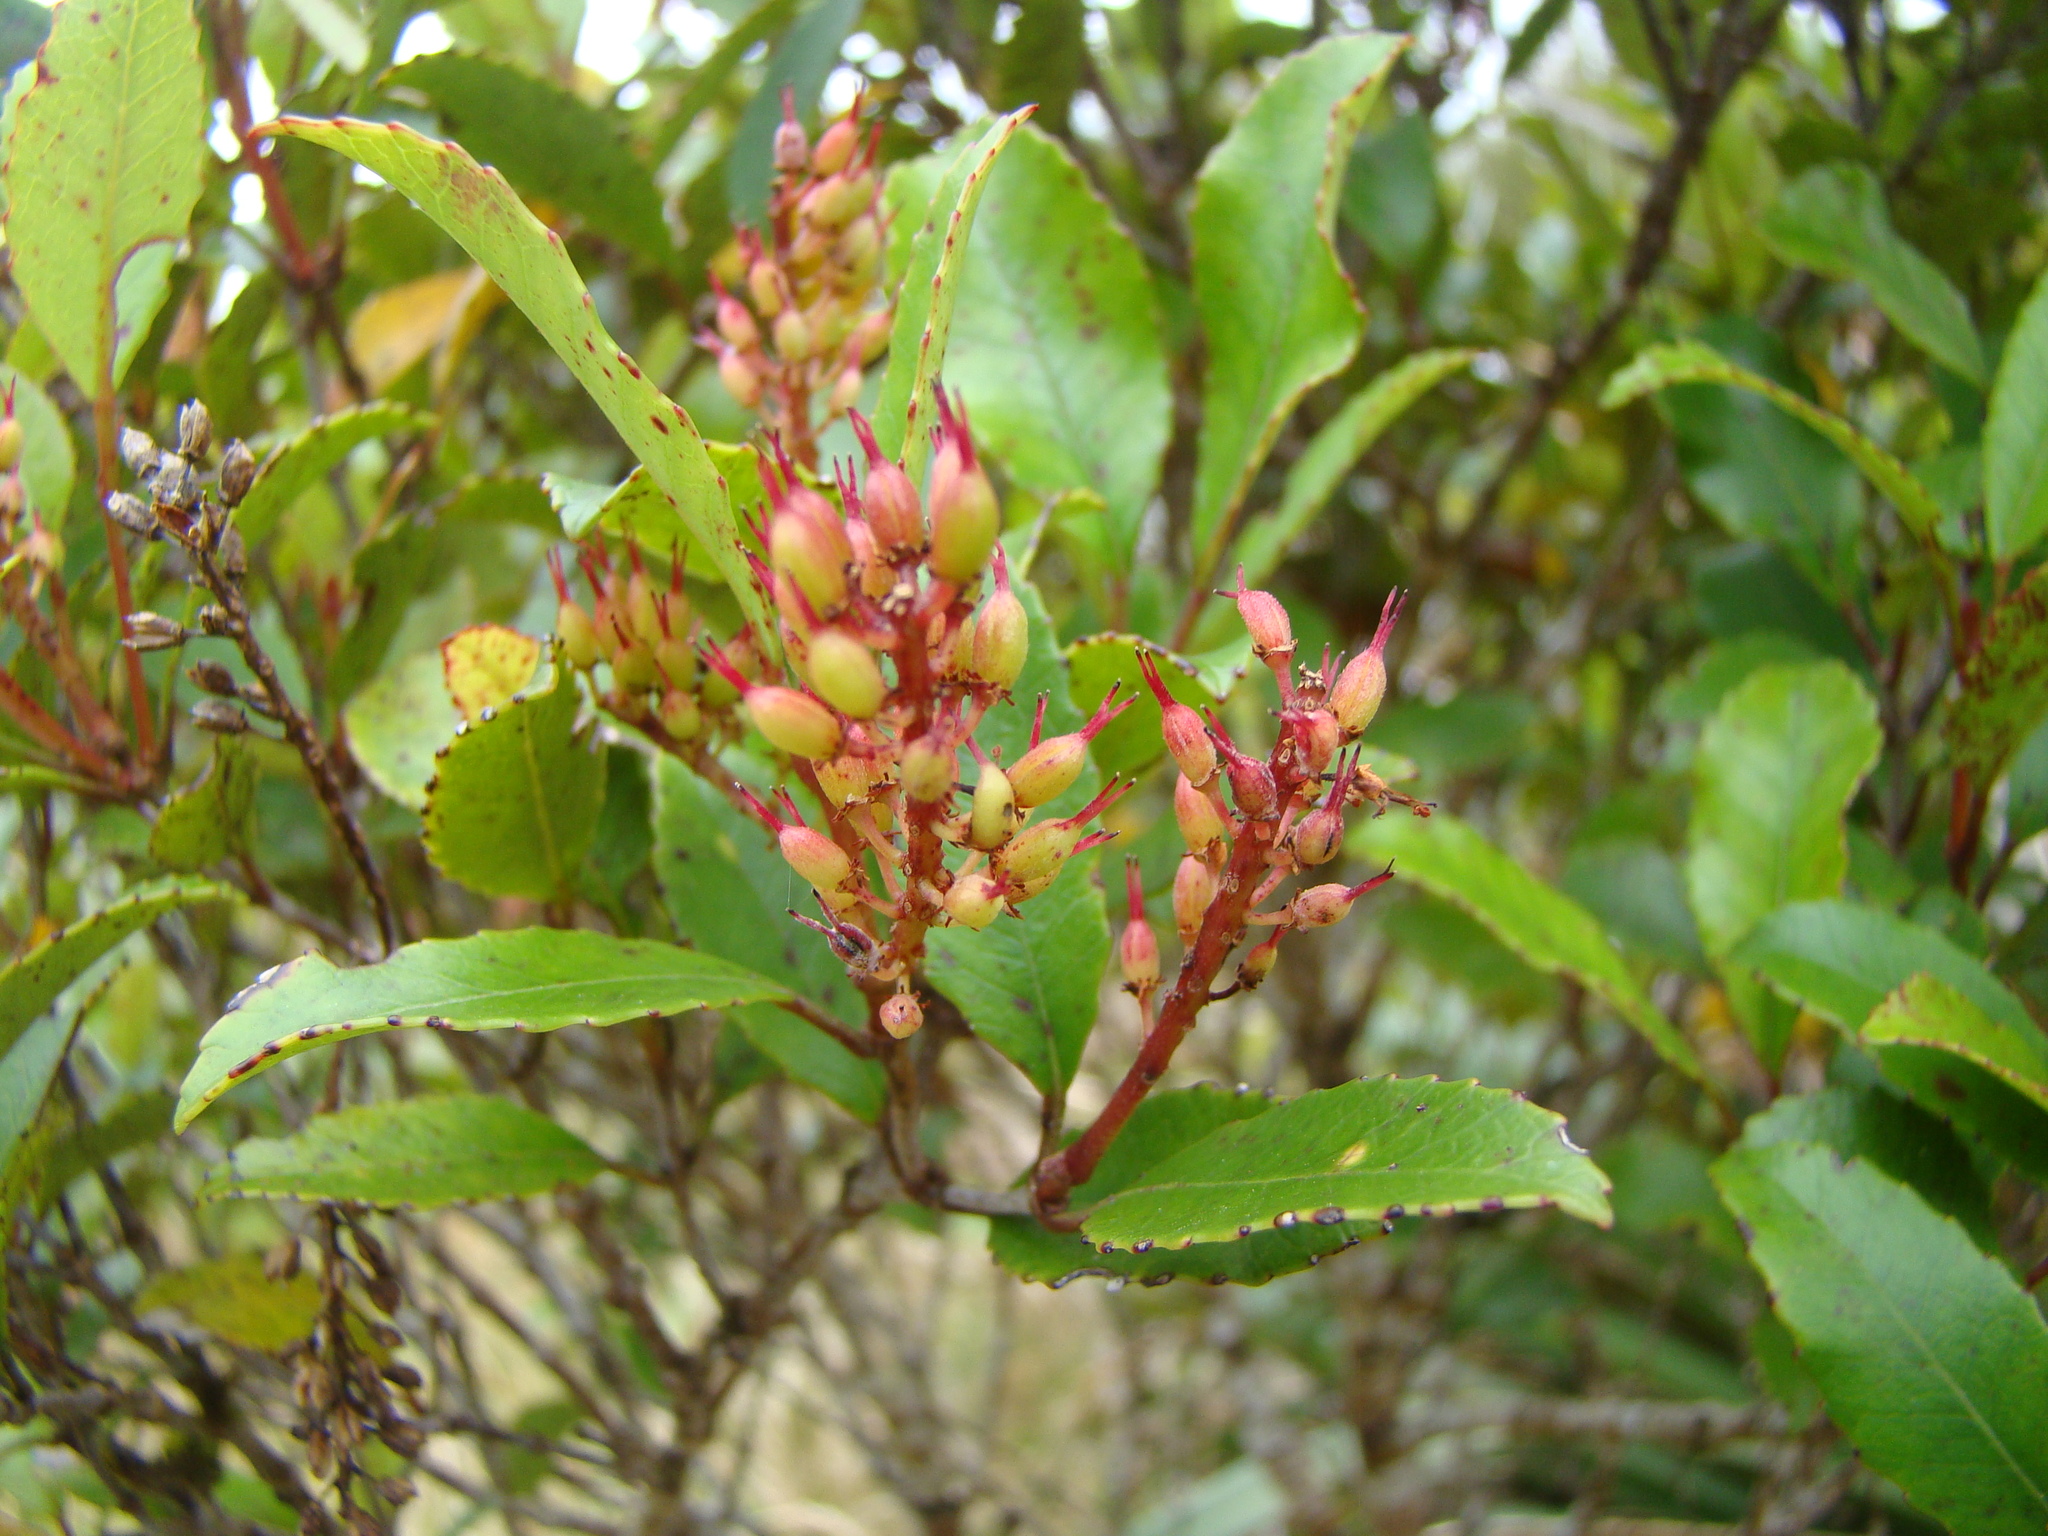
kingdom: Plantae
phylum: Tracheophyta
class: Magnoliopsida
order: Oxalidales
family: Cunoniaceae
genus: Pterophylla
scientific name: Pterophylla racemosa
